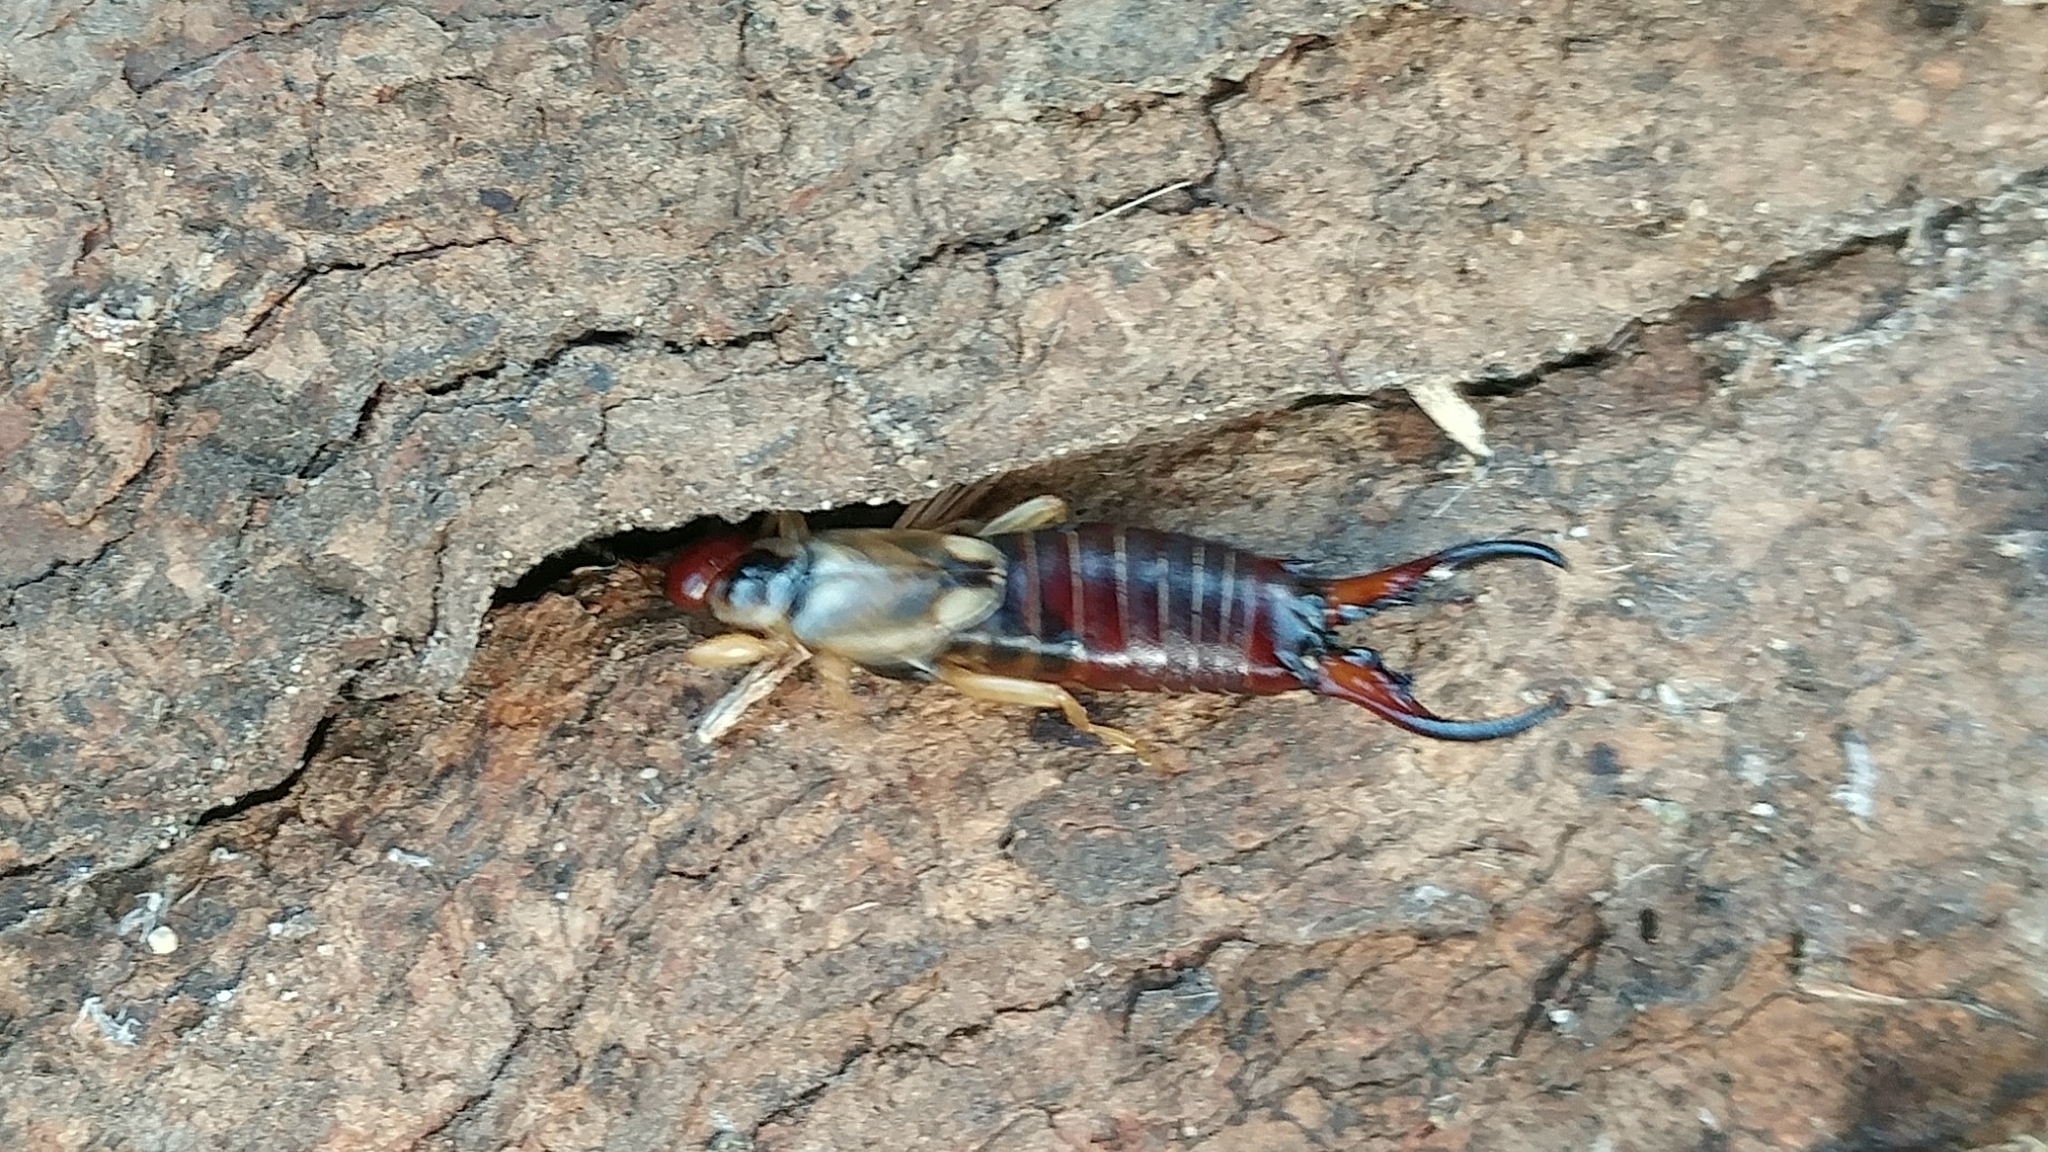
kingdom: Animalia
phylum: Arthropoda
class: Insecta
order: Dermaptera
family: Forficulidae
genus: Forficula
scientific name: Forficula
